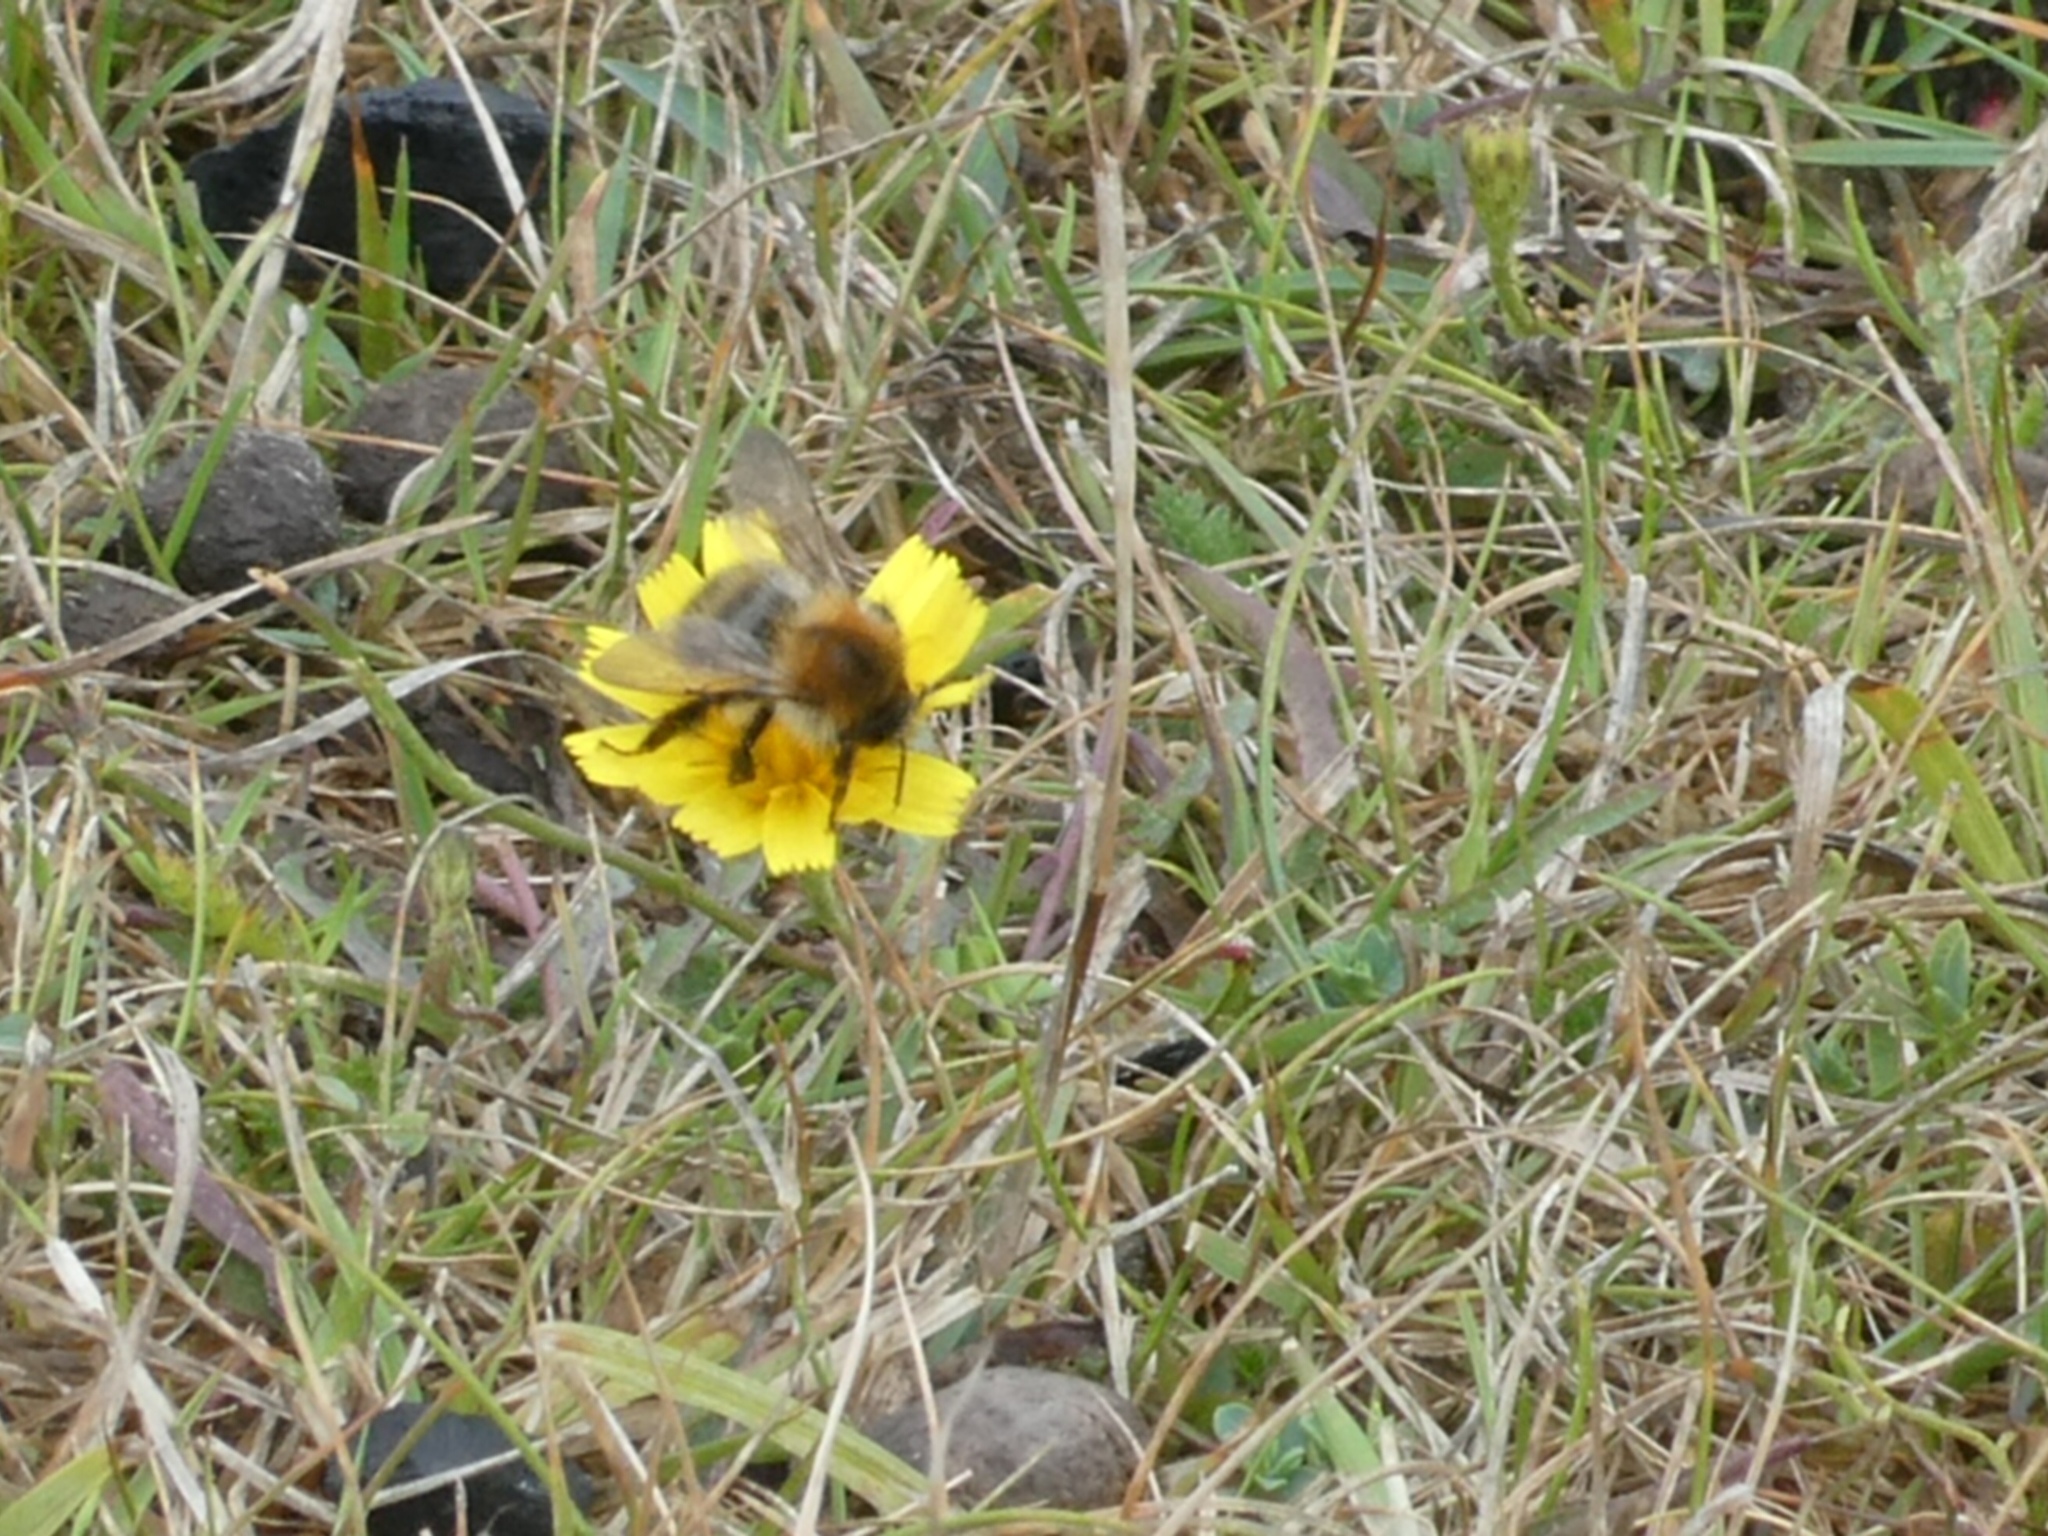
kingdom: Animalia
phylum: Arthropoda
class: Insecta
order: Hymenoptera
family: Apidae
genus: Bombus
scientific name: Bombus pascuorum
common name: Common carder bee
